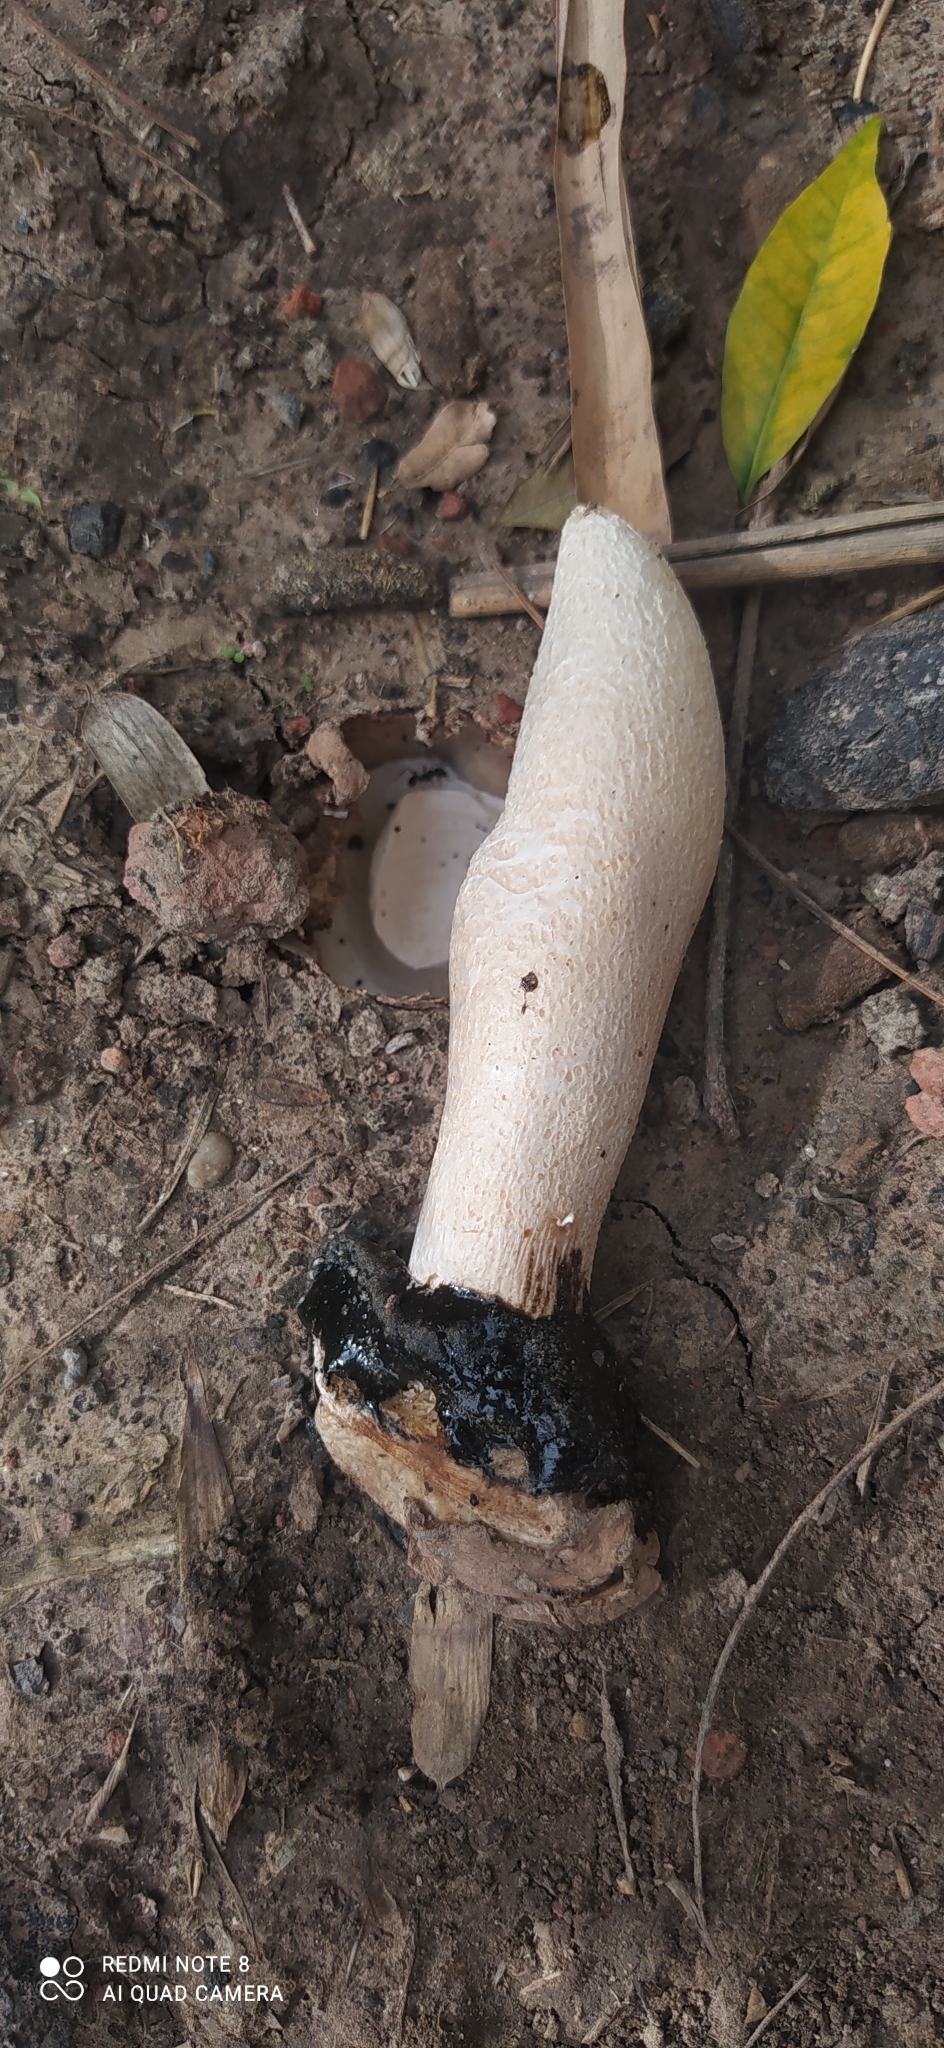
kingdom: Fungi
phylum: Basidiomycota
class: Agaricomycetes
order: Phallales
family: Phallaceae
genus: Itajahya
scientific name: Itajahya galericulata
